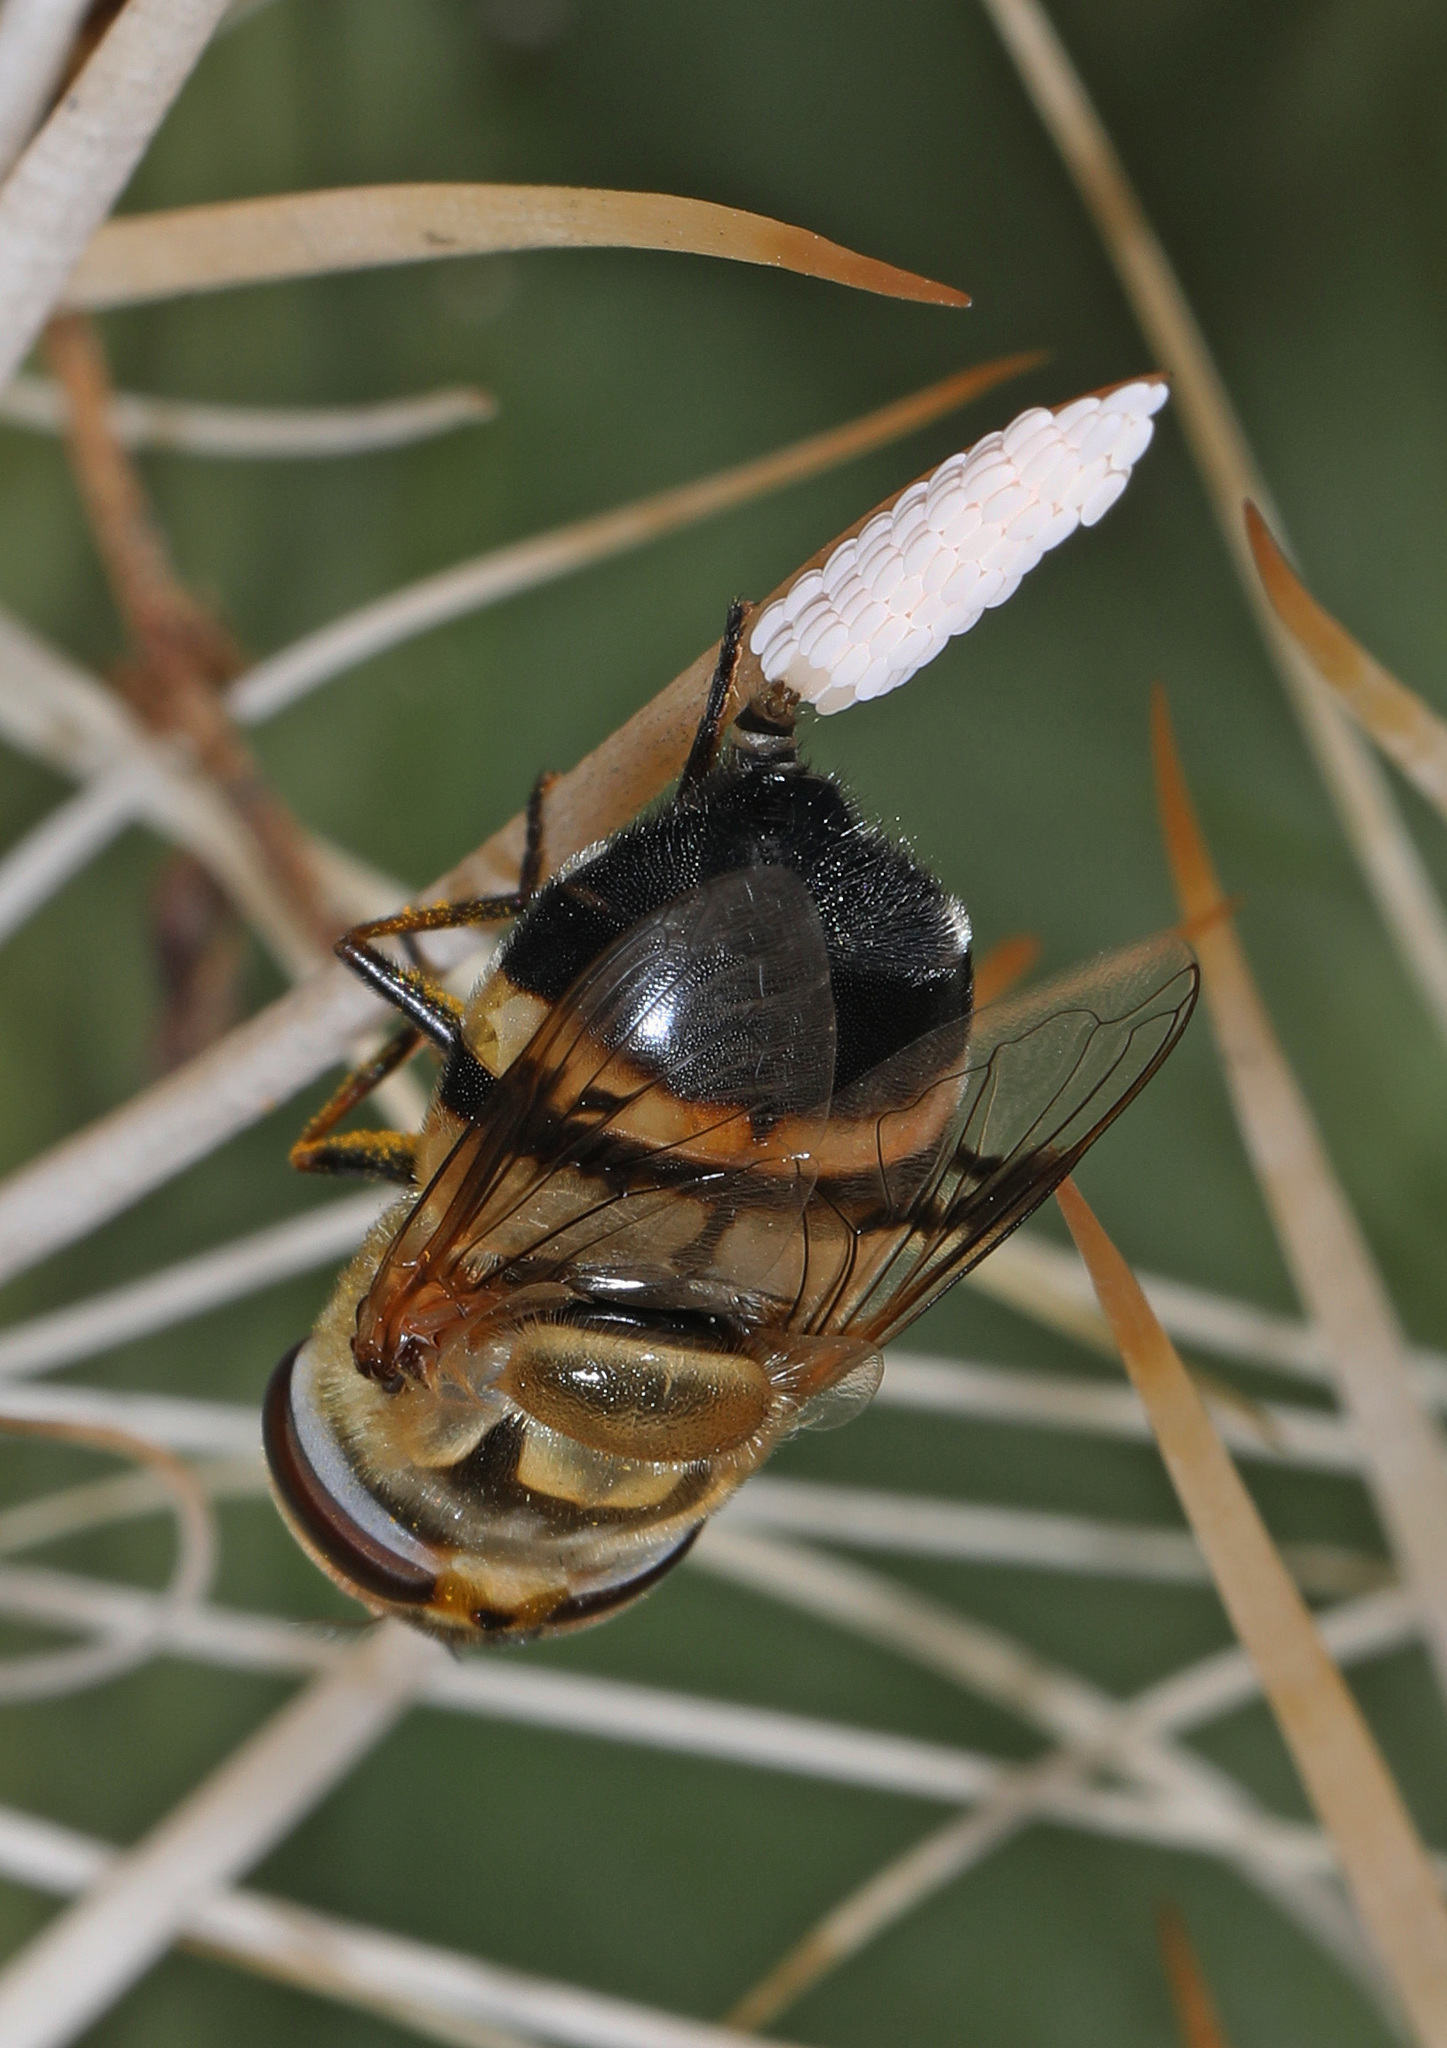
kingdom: Animalia
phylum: Arthropoda
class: Insecta
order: Diptera
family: Syrphidae
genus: Copestylum
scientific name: Copestylum apiciferum
